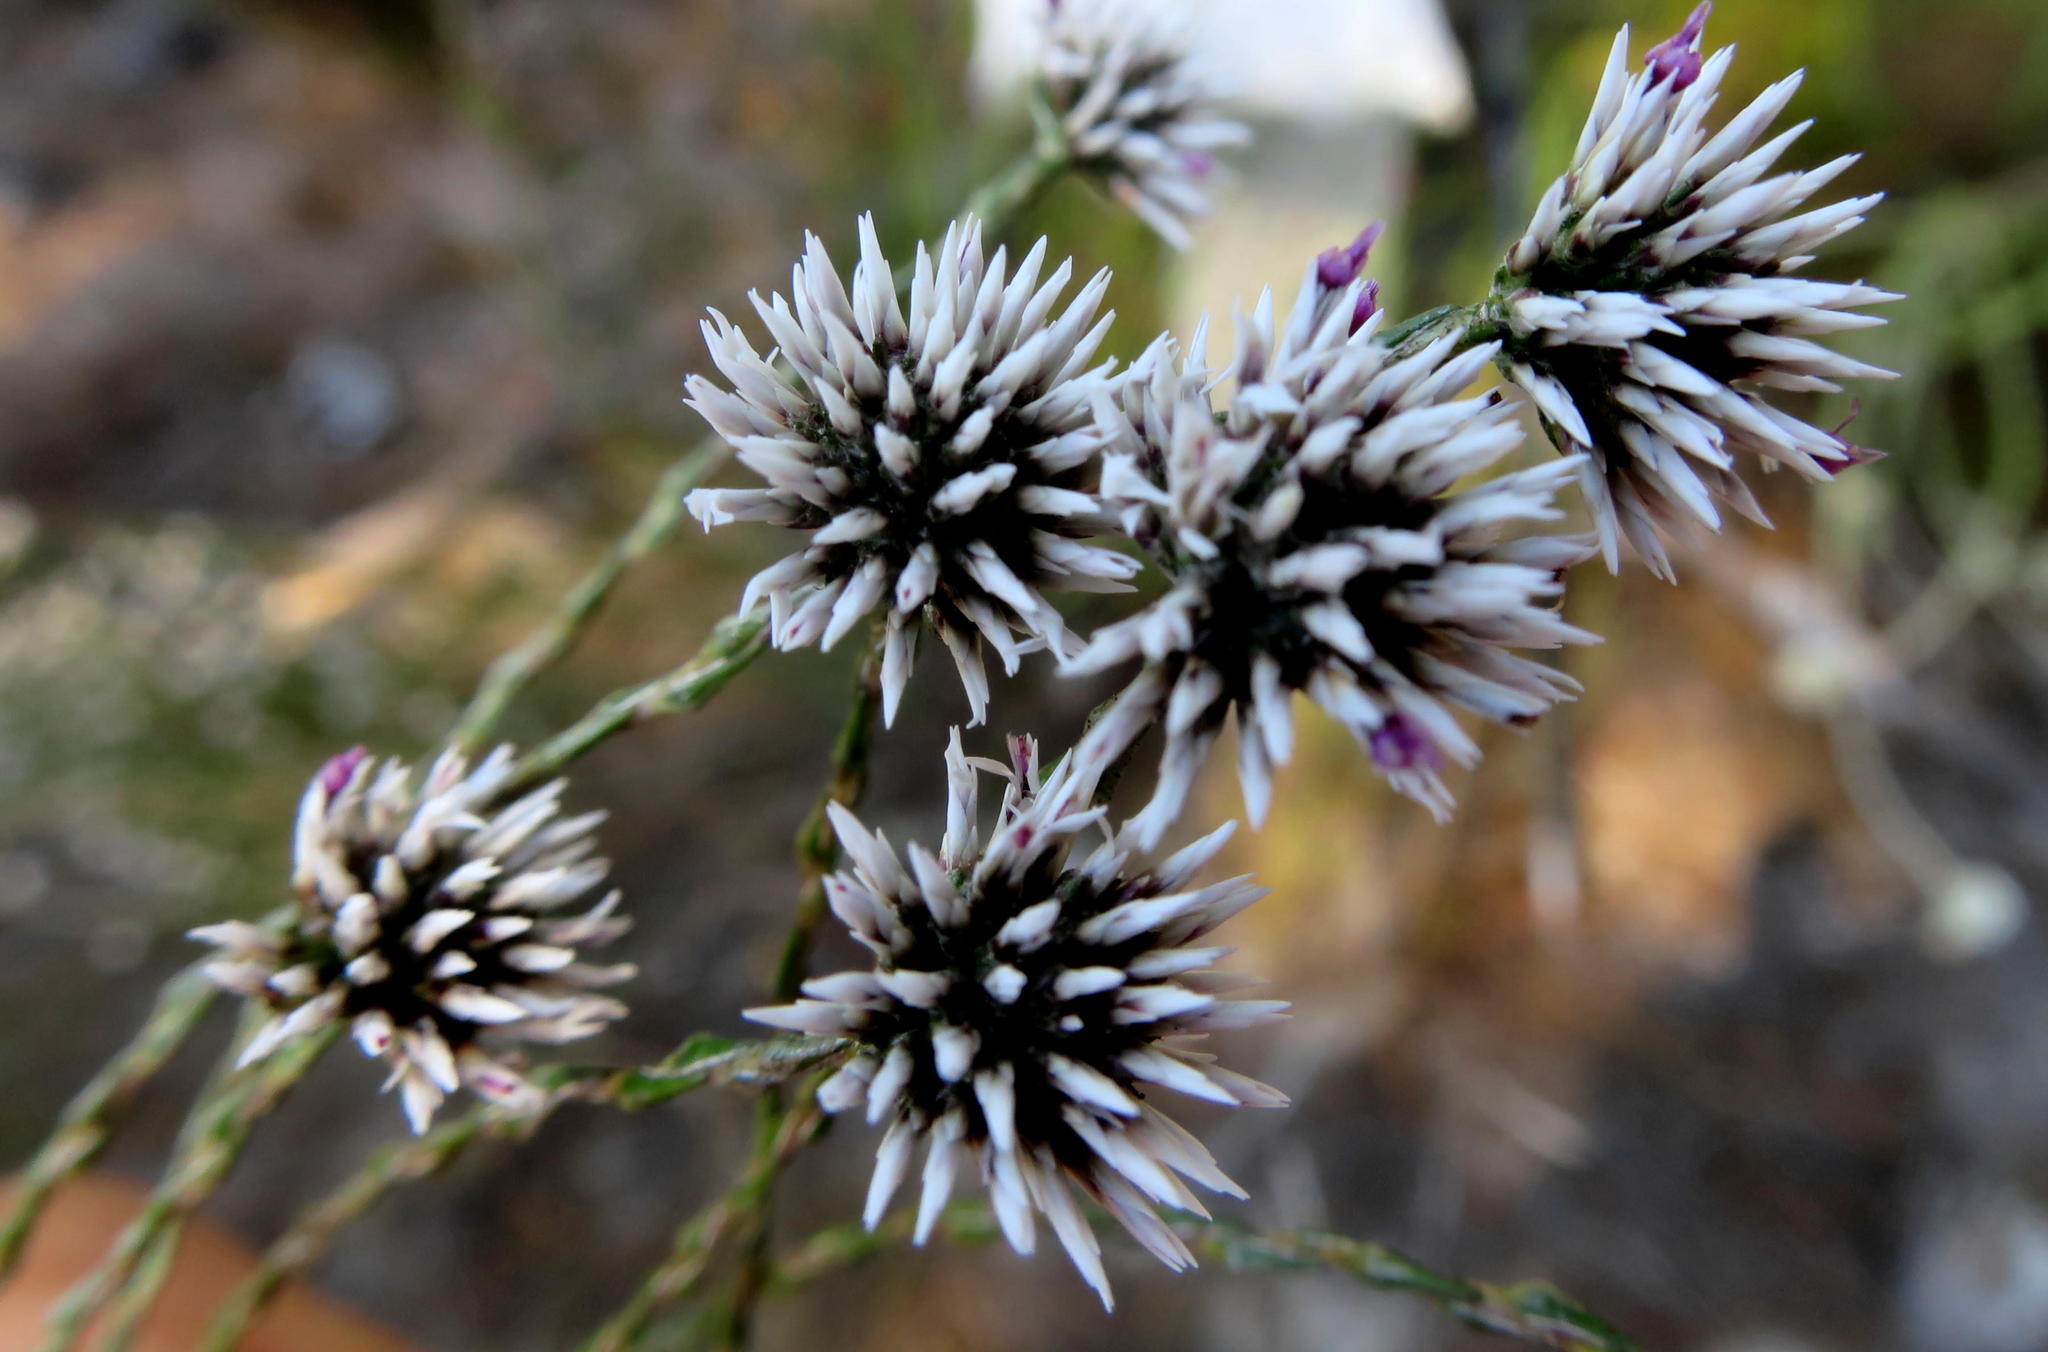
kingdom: Plantae
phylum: Tracheophyta
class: Magnoliopsida
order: Asterales
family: Asteraceae
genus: Stoebe
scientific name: Stoebe microphylla
